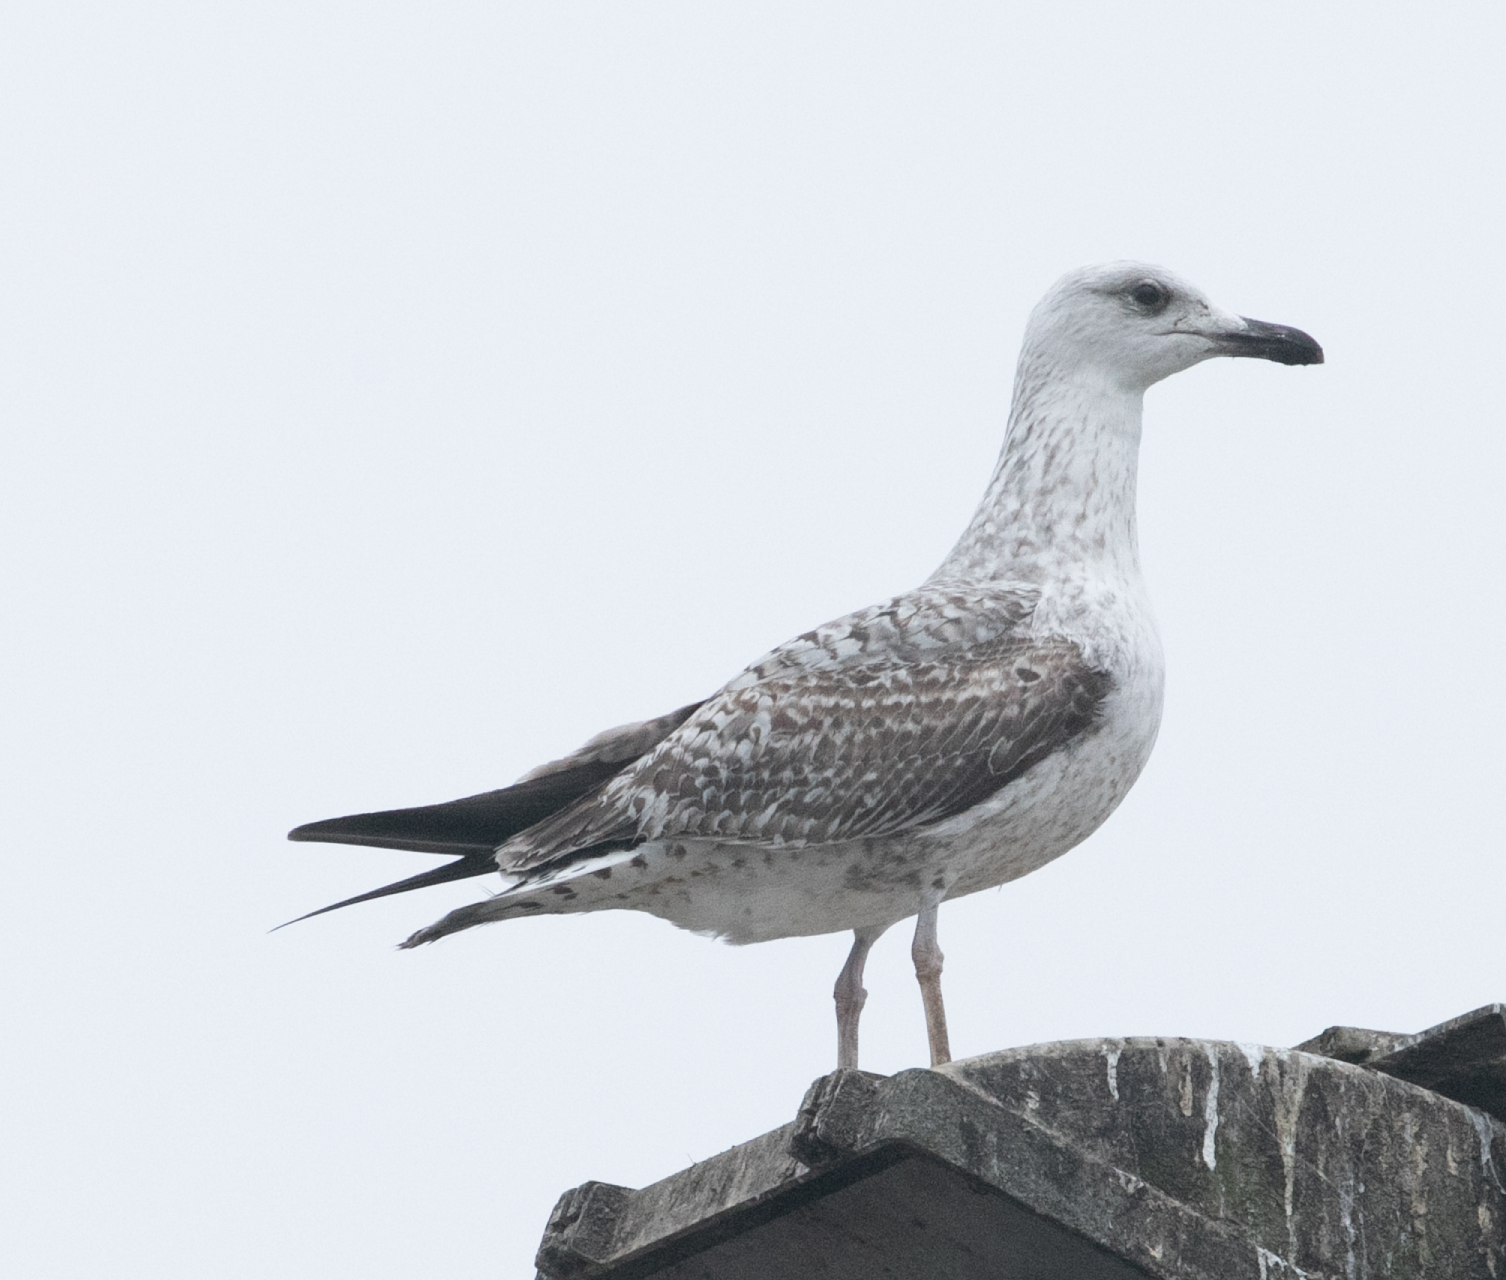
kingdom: Animalia
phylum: Chordata
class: Aves
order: Charadriiformes
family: Laridae
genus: Larus
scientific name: Larus michahellis
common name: Yellow-legged gull
